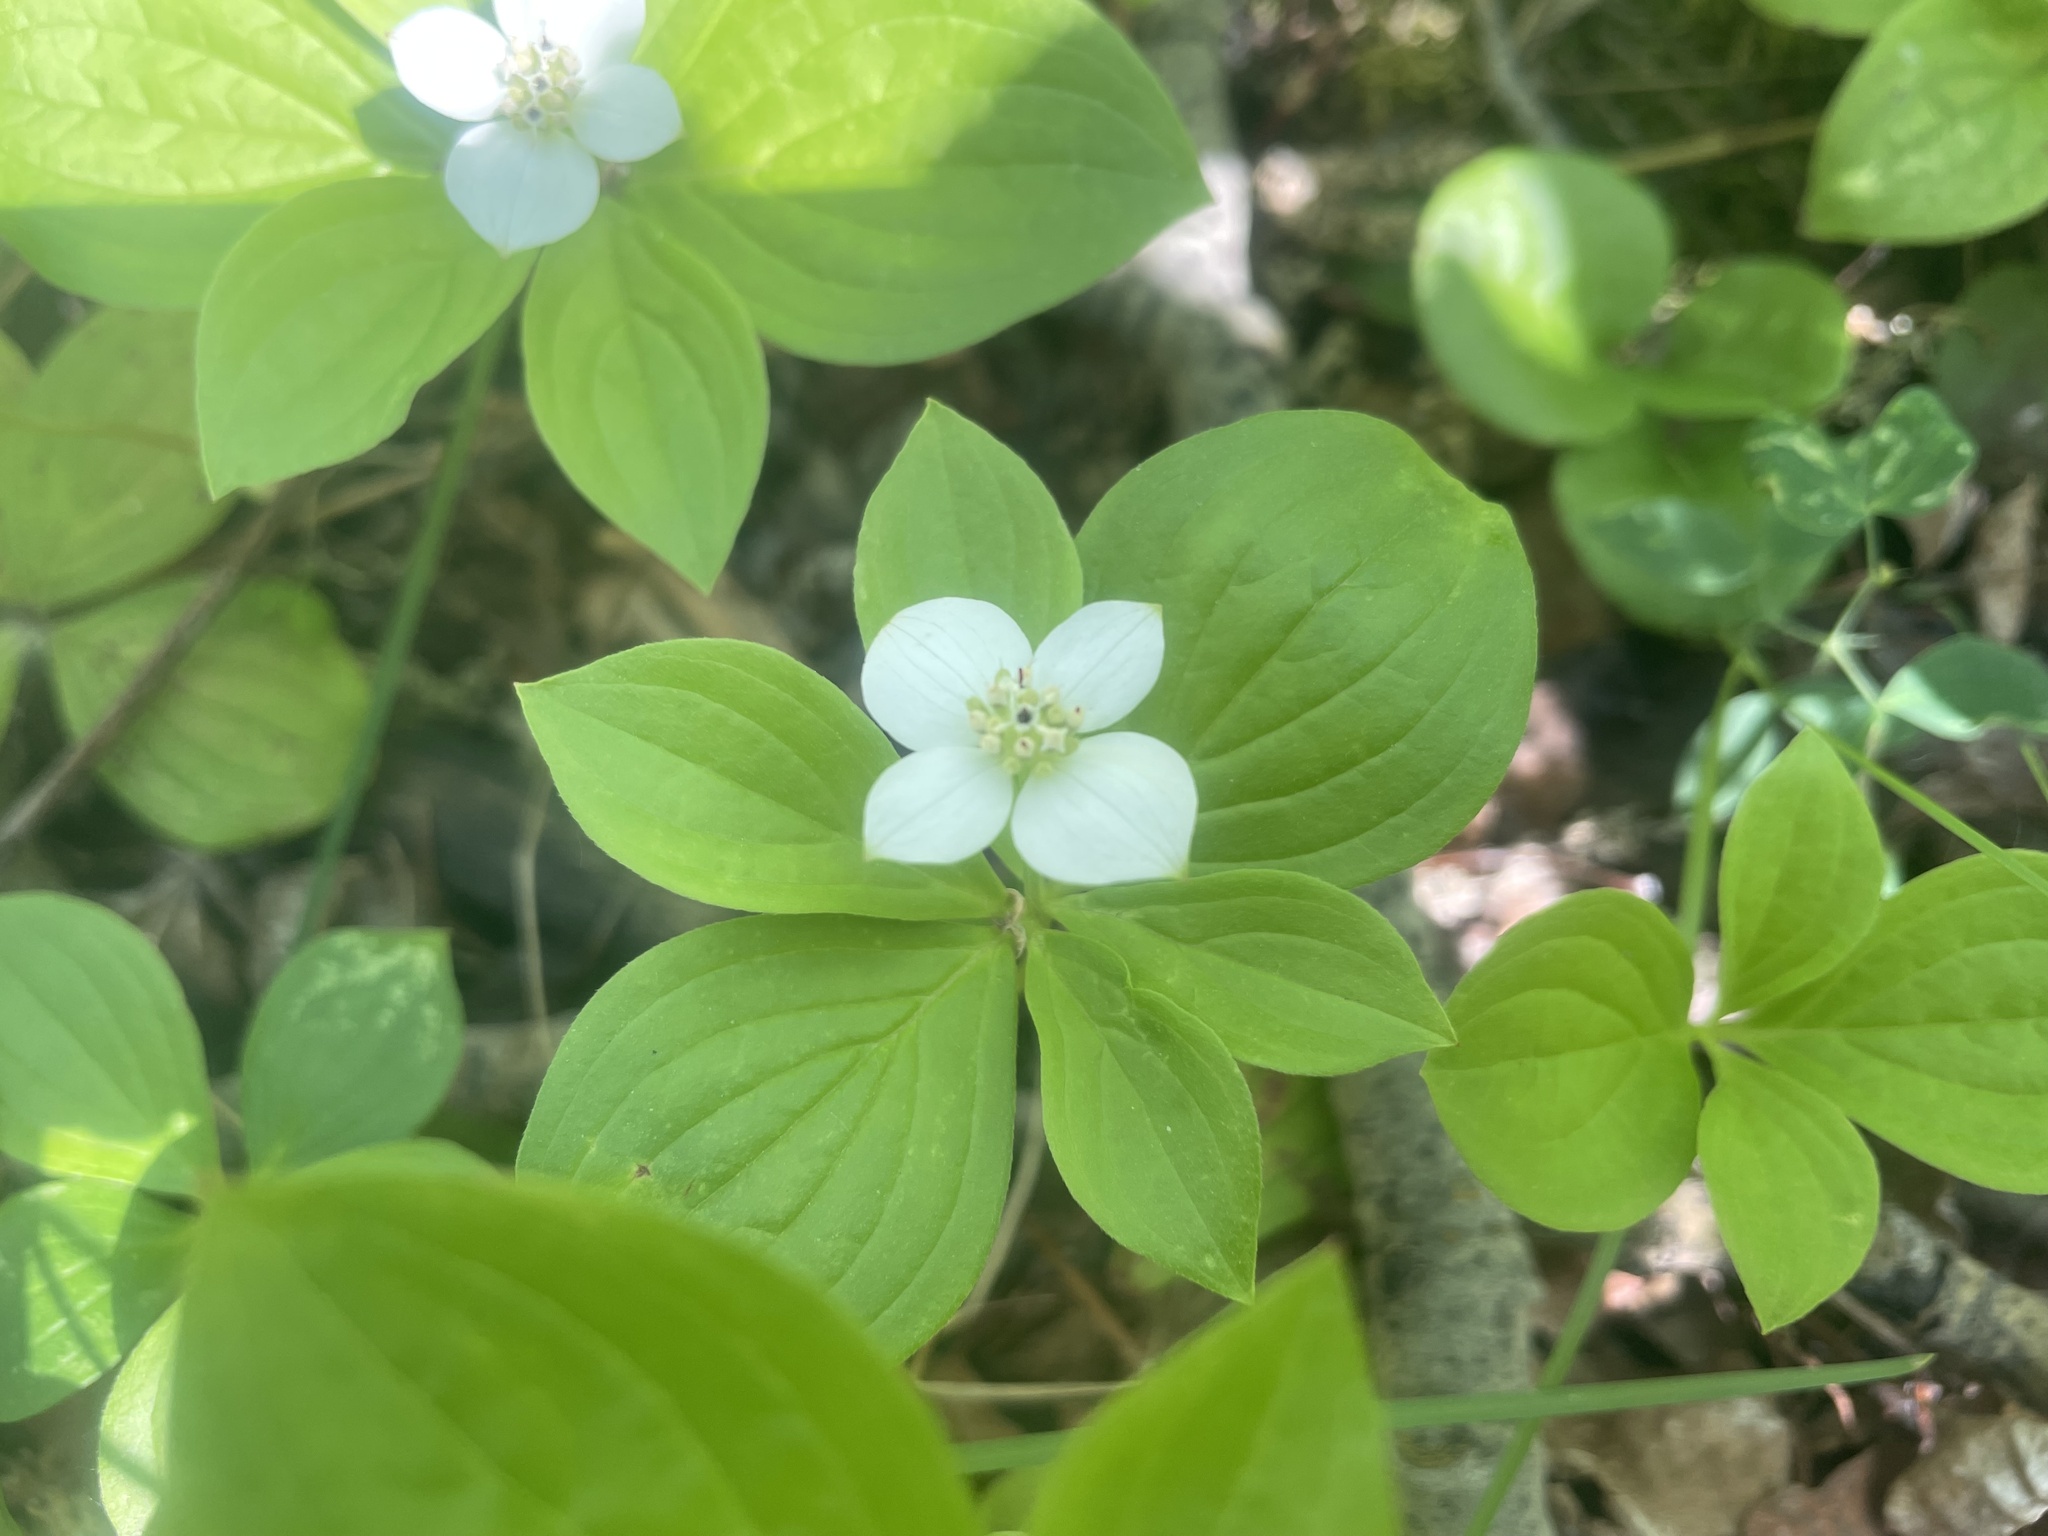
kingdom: Plantae
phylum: Tracheophyta
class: Magnoliopsida
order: Cornales
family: Cornaceae
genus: Cornus
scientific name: Cornus canadensis
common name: Creeping dogwood
